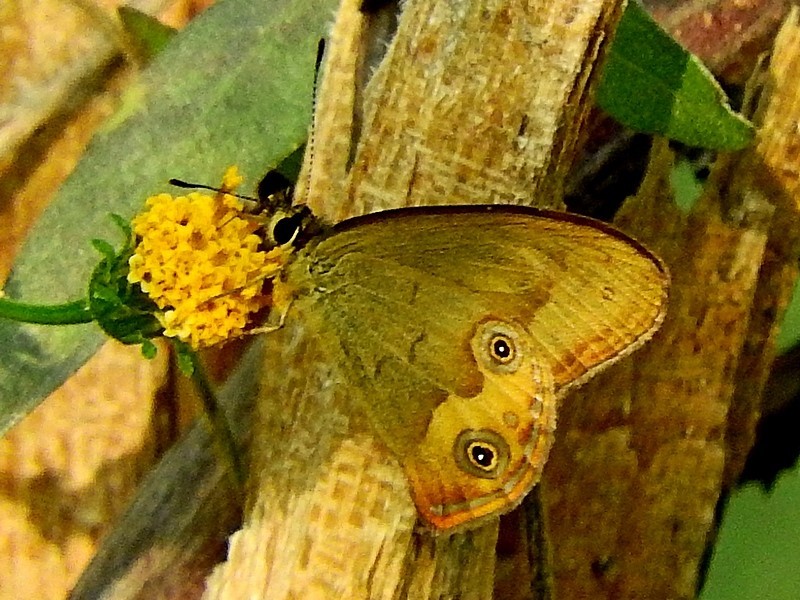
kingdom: Animalia
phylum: Arthropoda
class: Insecta
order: Lepidoptera
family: Nymphalidae
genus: Hypocysta
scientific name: Hypocysta metirius
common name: Brown ringlet
